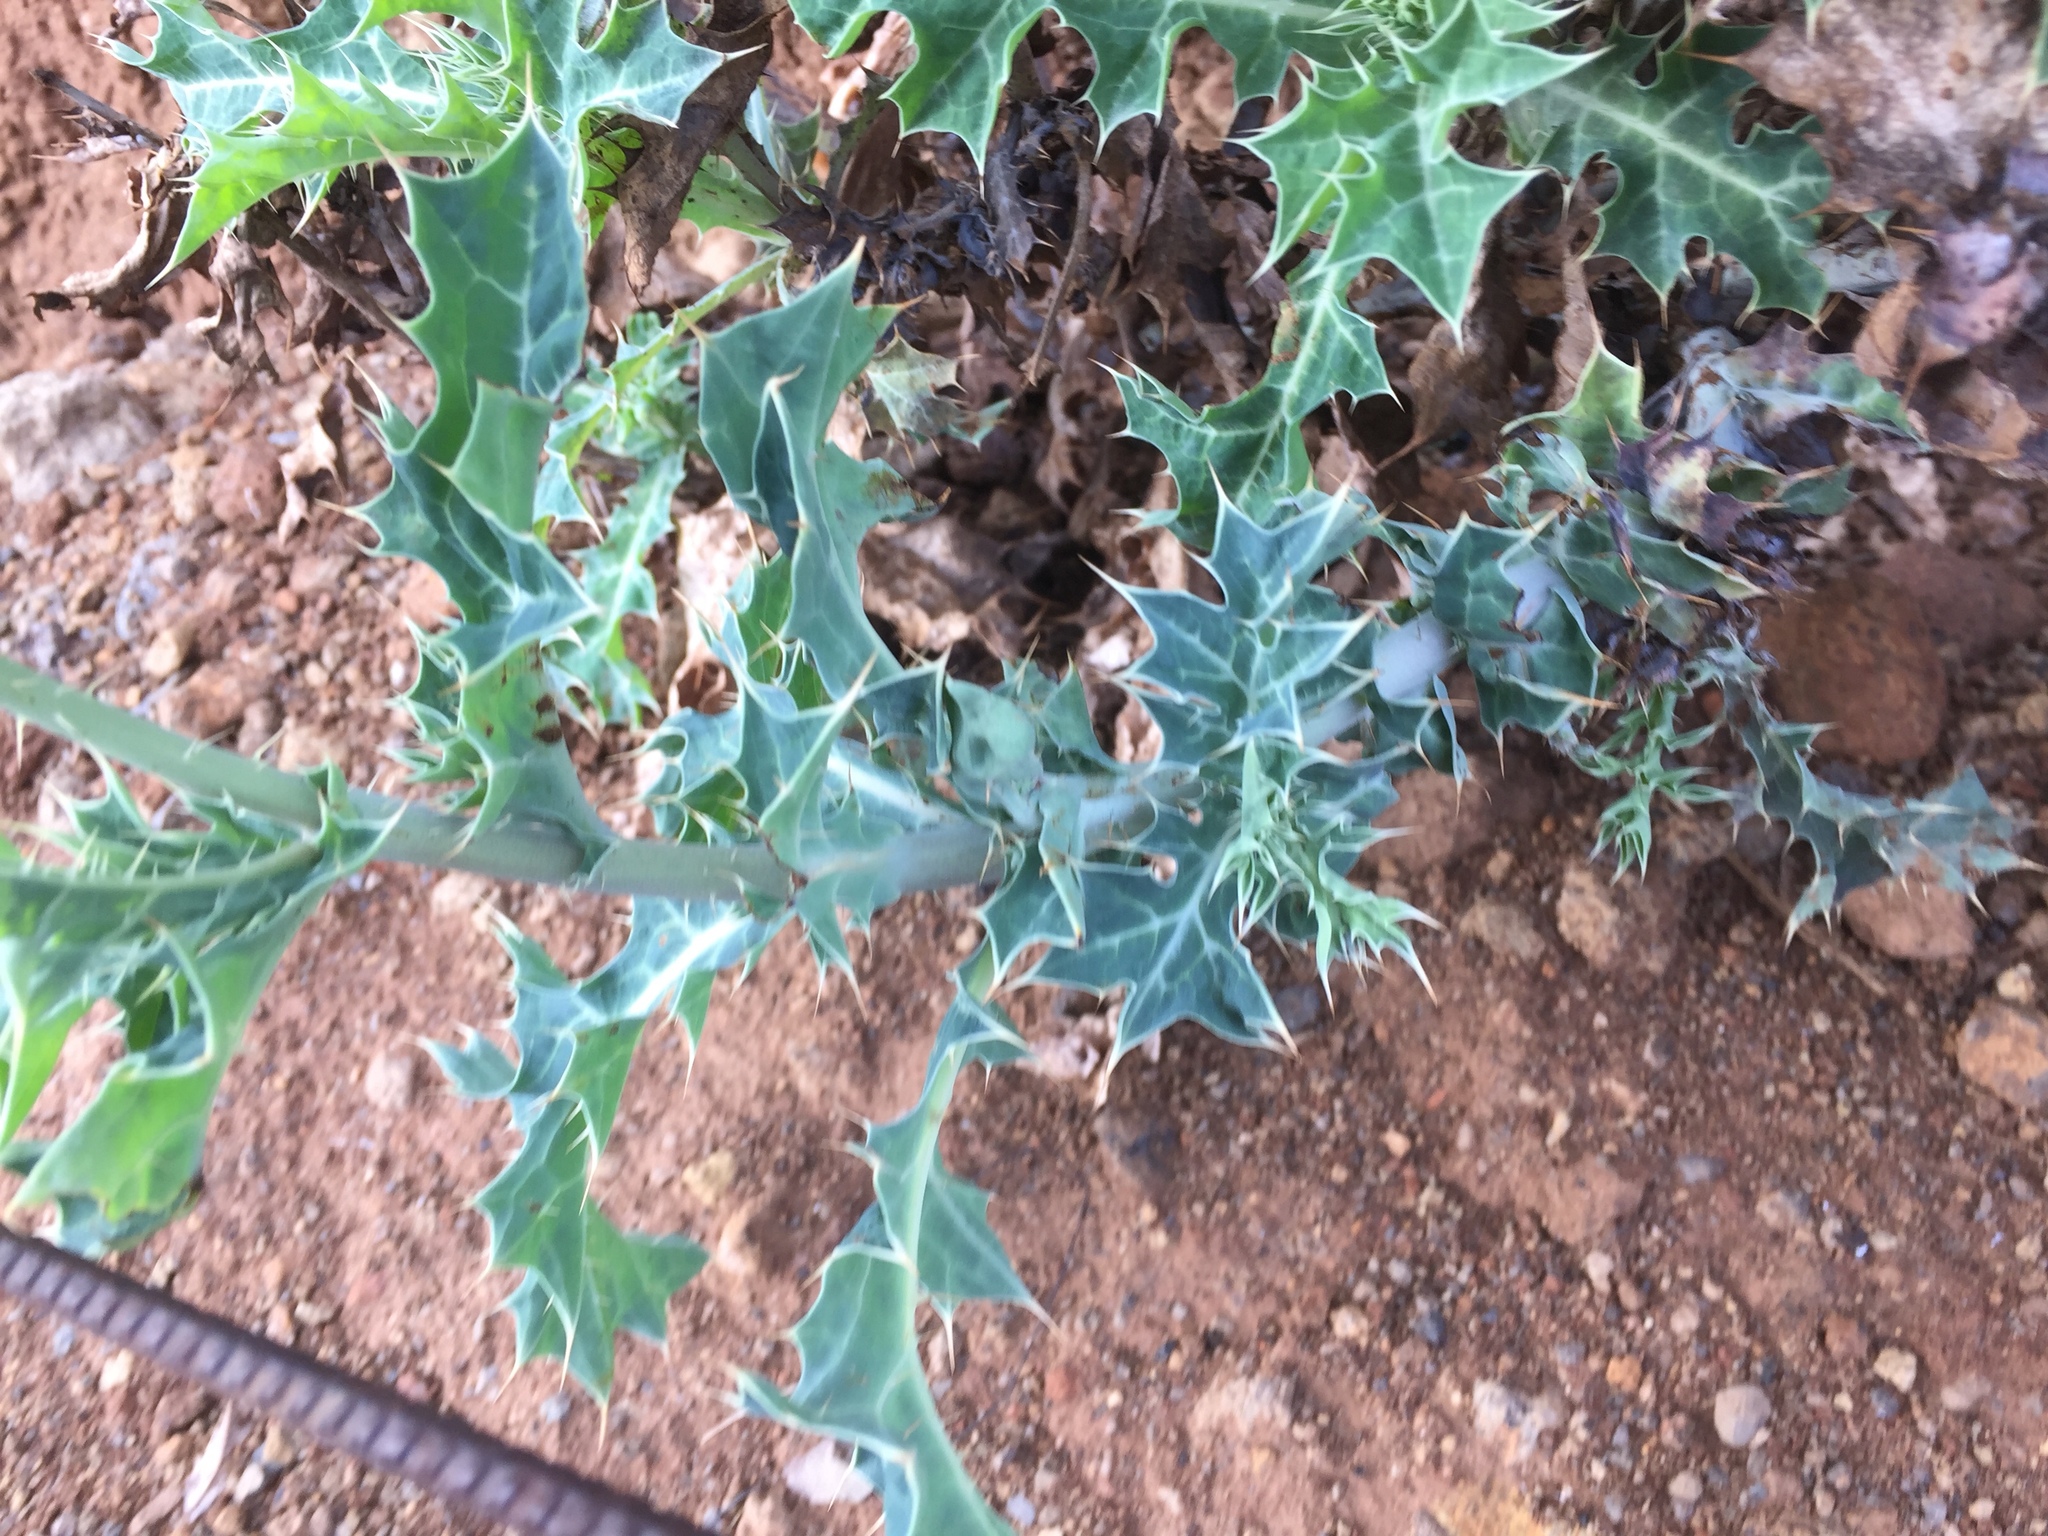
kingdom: Plantae
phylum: Tracheophyta
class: Magnoliopsida
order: Ranunculales
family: Papaveraceae
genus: Argemone
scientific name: Argemone mexicana
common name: Mexican poppy
